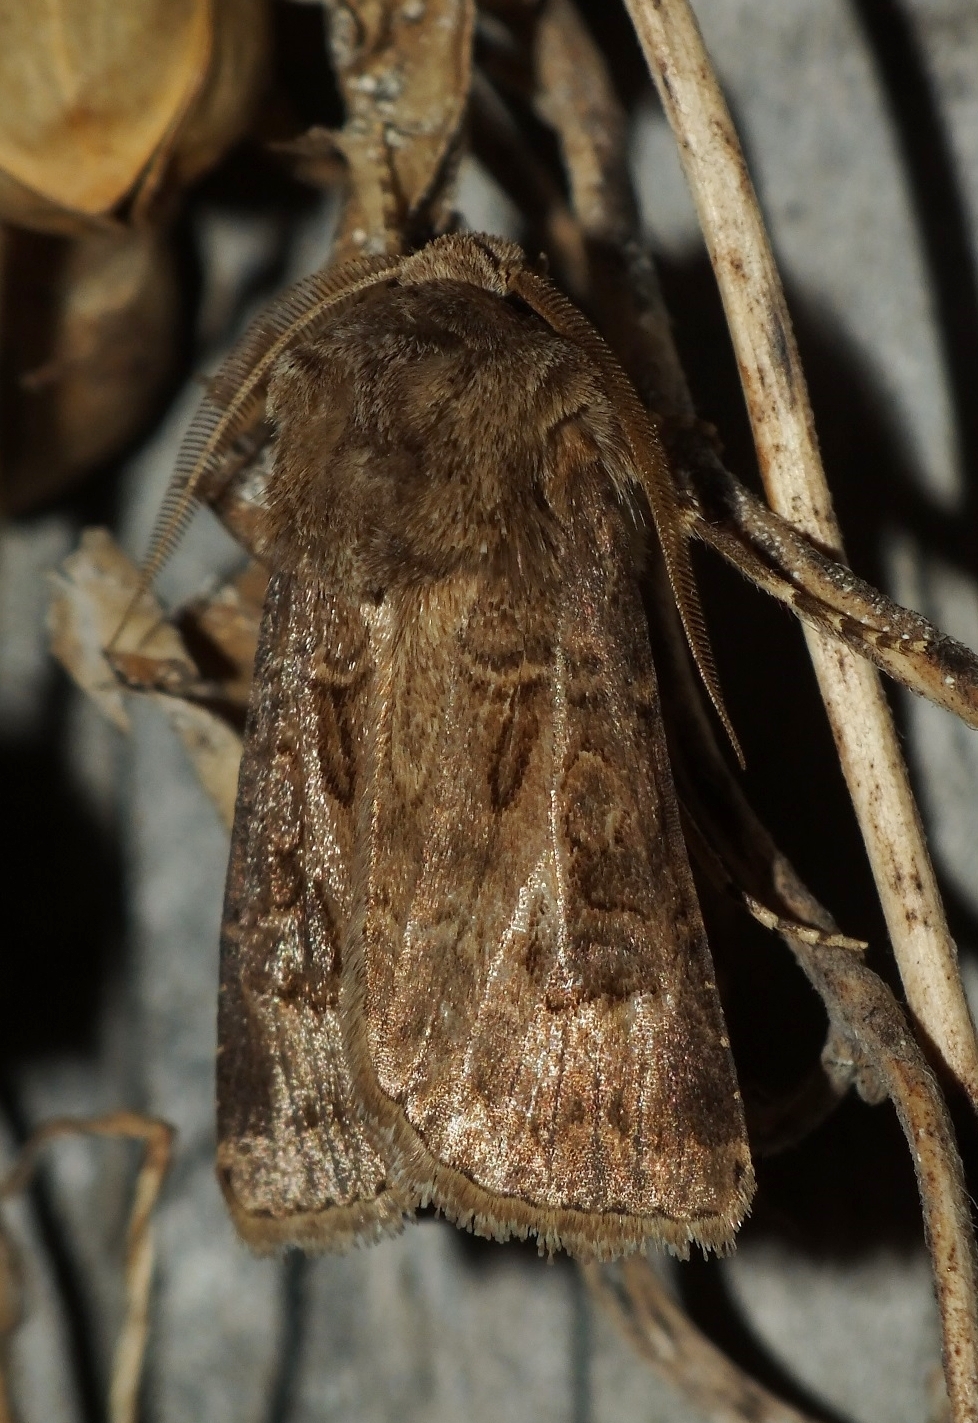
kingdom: Animalia
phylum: Arthropoda
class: Insecta
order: Lepidoptera
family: Noctuidae
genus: Agrotis
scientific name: Agrotis bigramma
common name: Great dart
